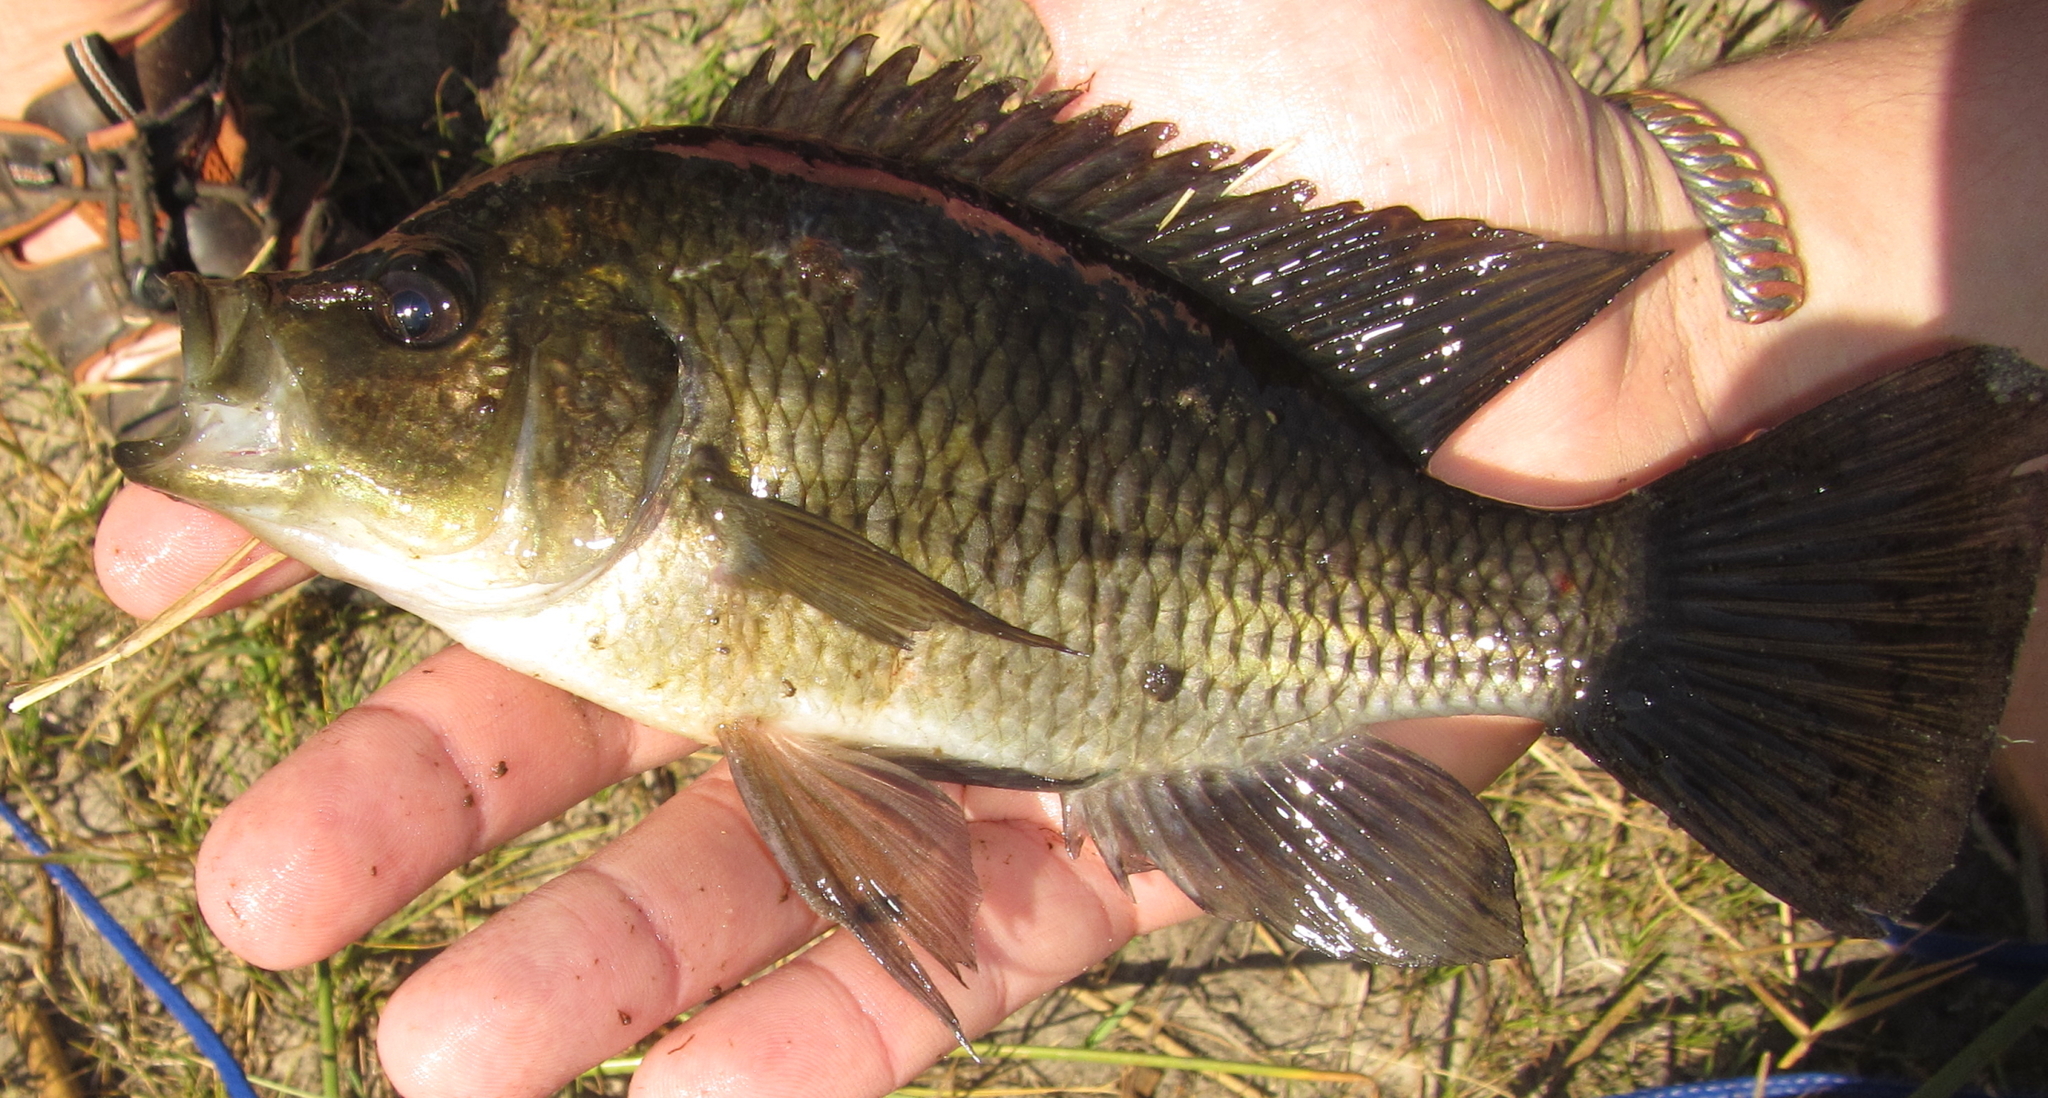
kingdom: Animalia
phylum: Chordata
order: Perciformes
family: Cichlidae
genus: Sargochromis
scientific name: Sargochromis carlottae
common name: Rainbow happy
